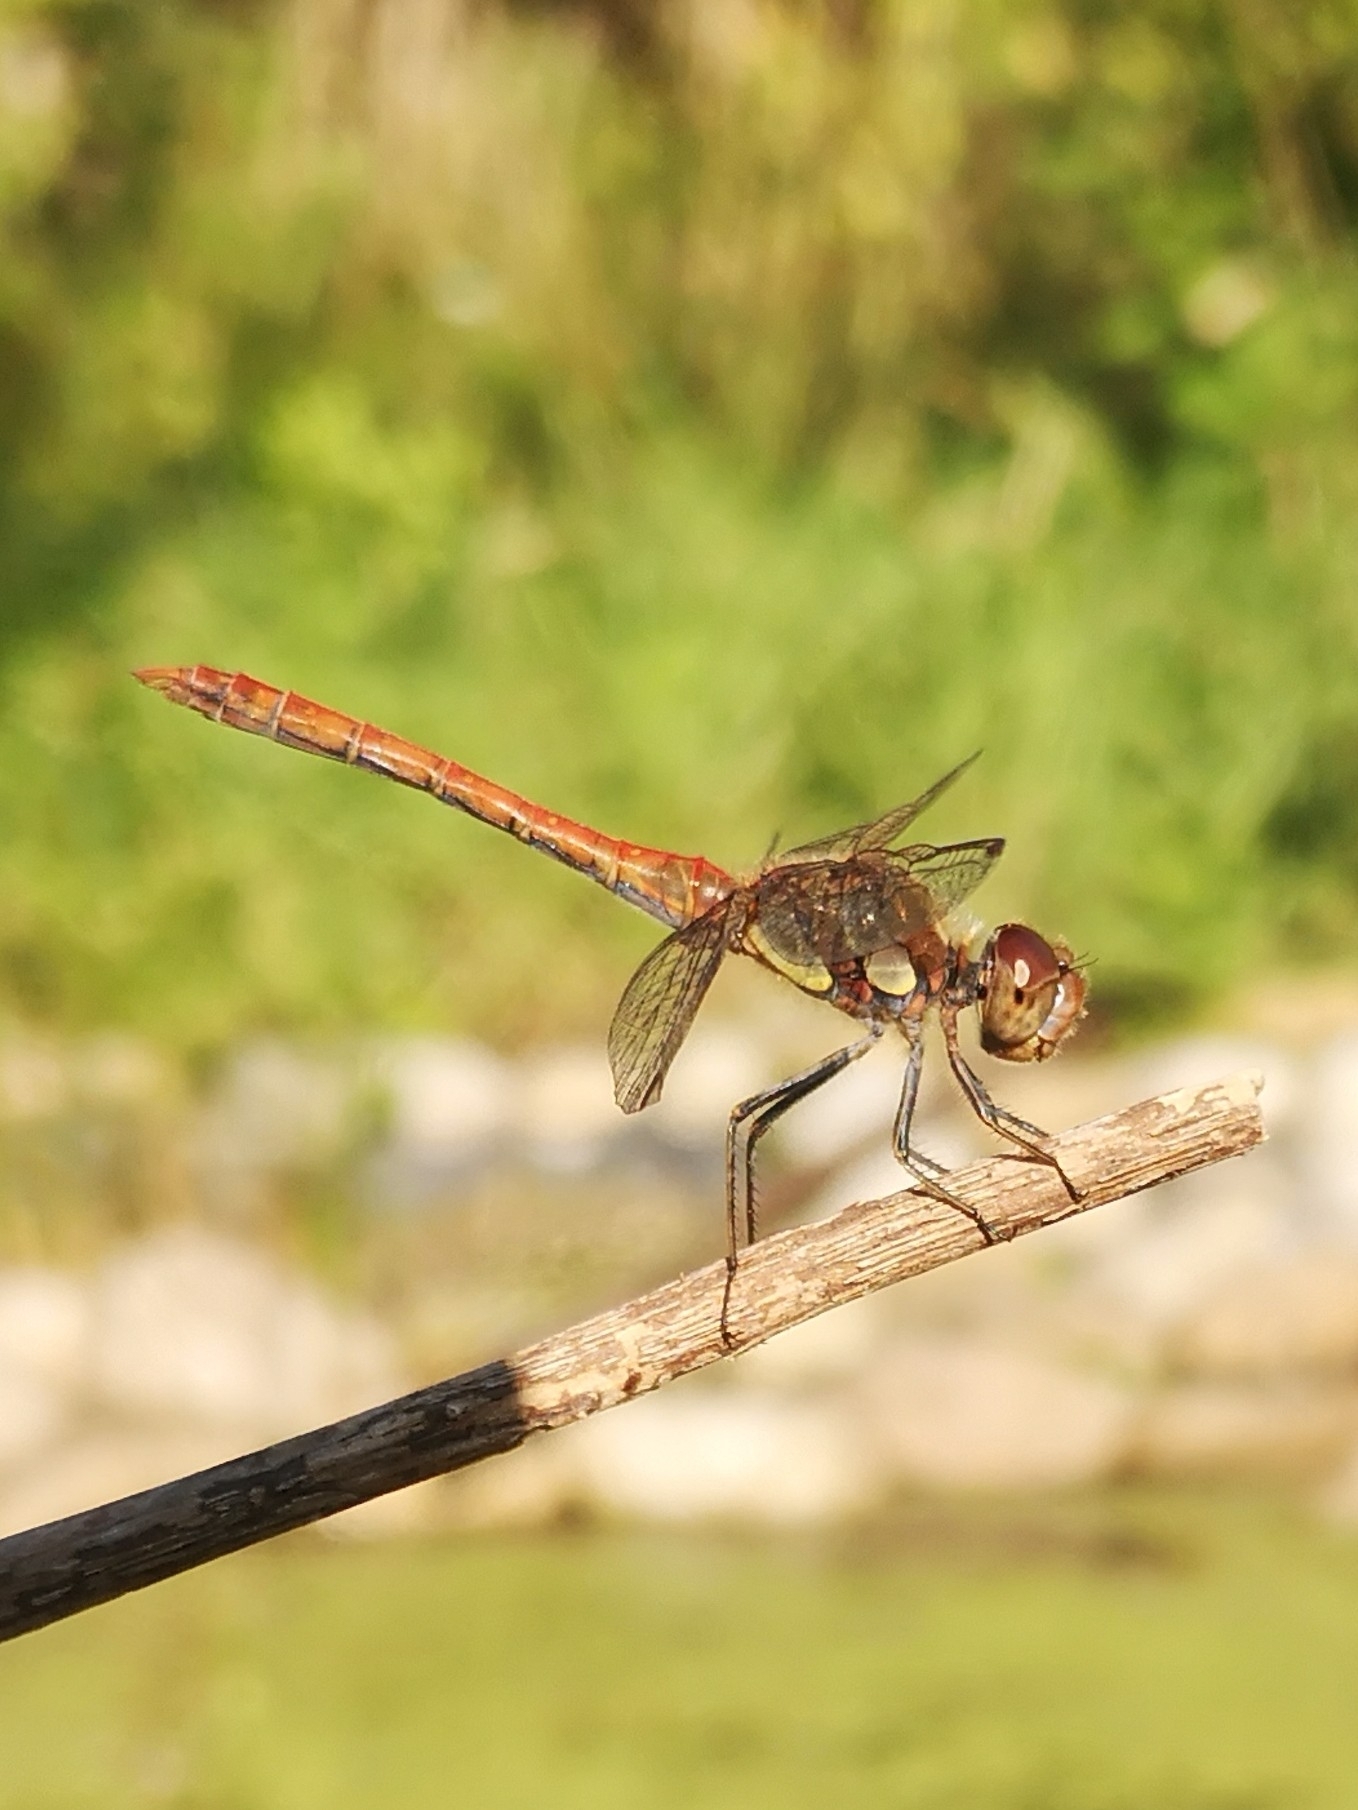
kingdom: Animalia
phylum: Arthropoda
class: Insecta
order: Odonata
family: Libellulidae
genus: Sympetrum
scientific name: Sympetrum striolatum
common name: Common darter
